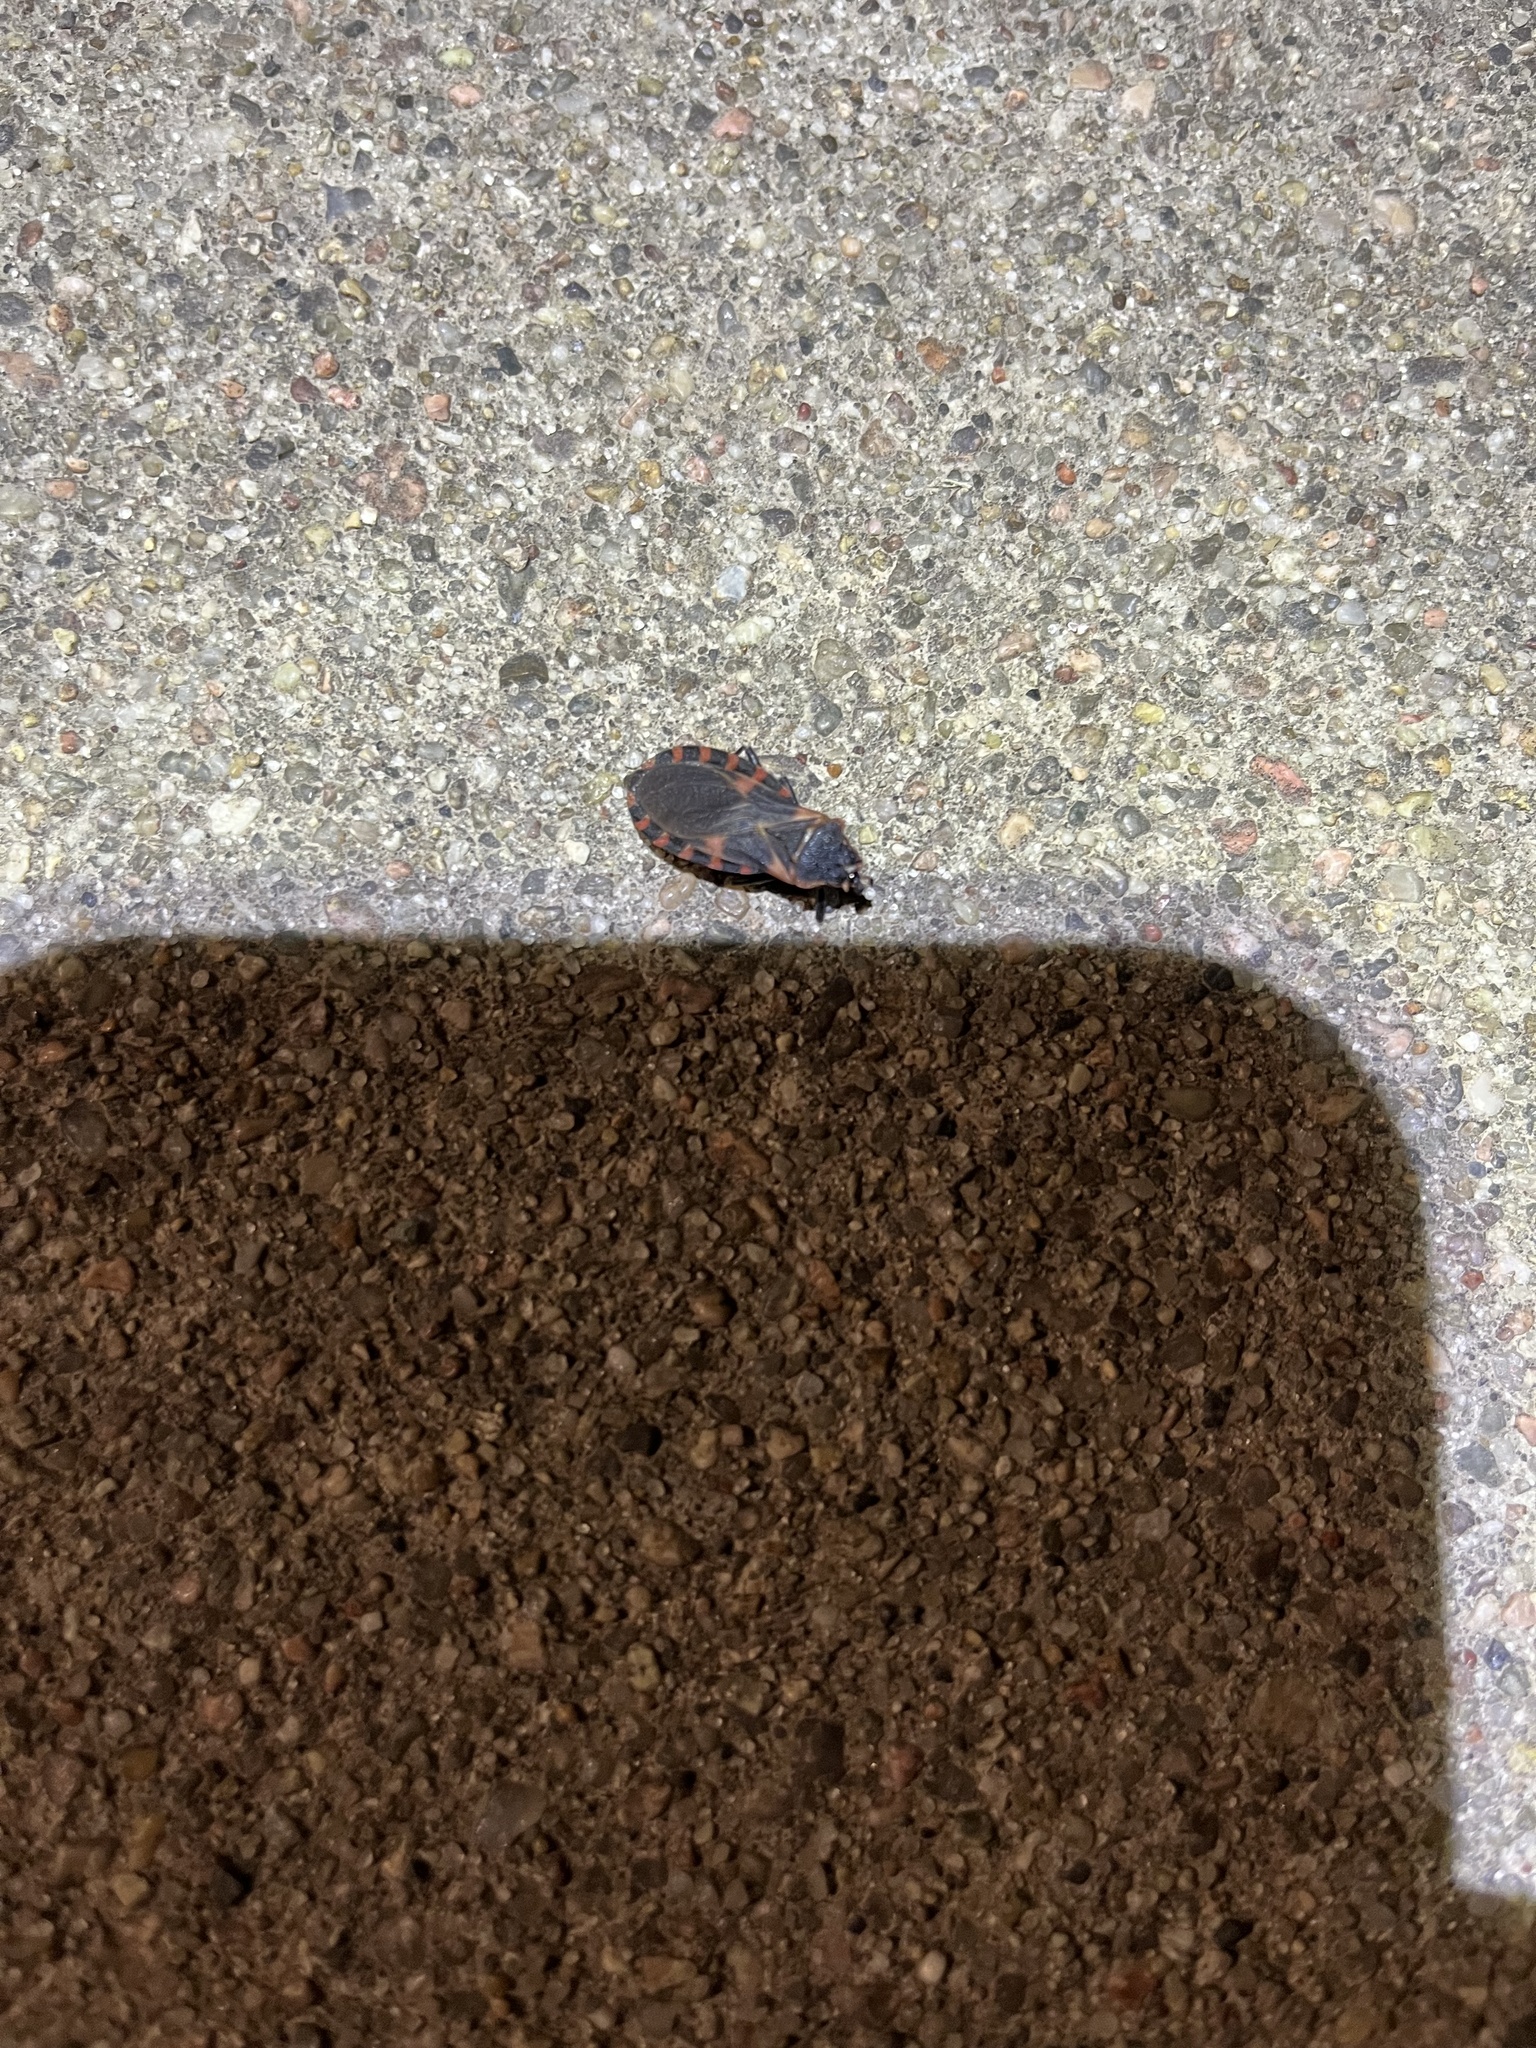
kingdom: Animalia
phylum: Arthropoda
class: Insecta
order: Hemiptera
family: Reduviidae
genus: Triatoma
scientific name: Triatoma sanguisuga
